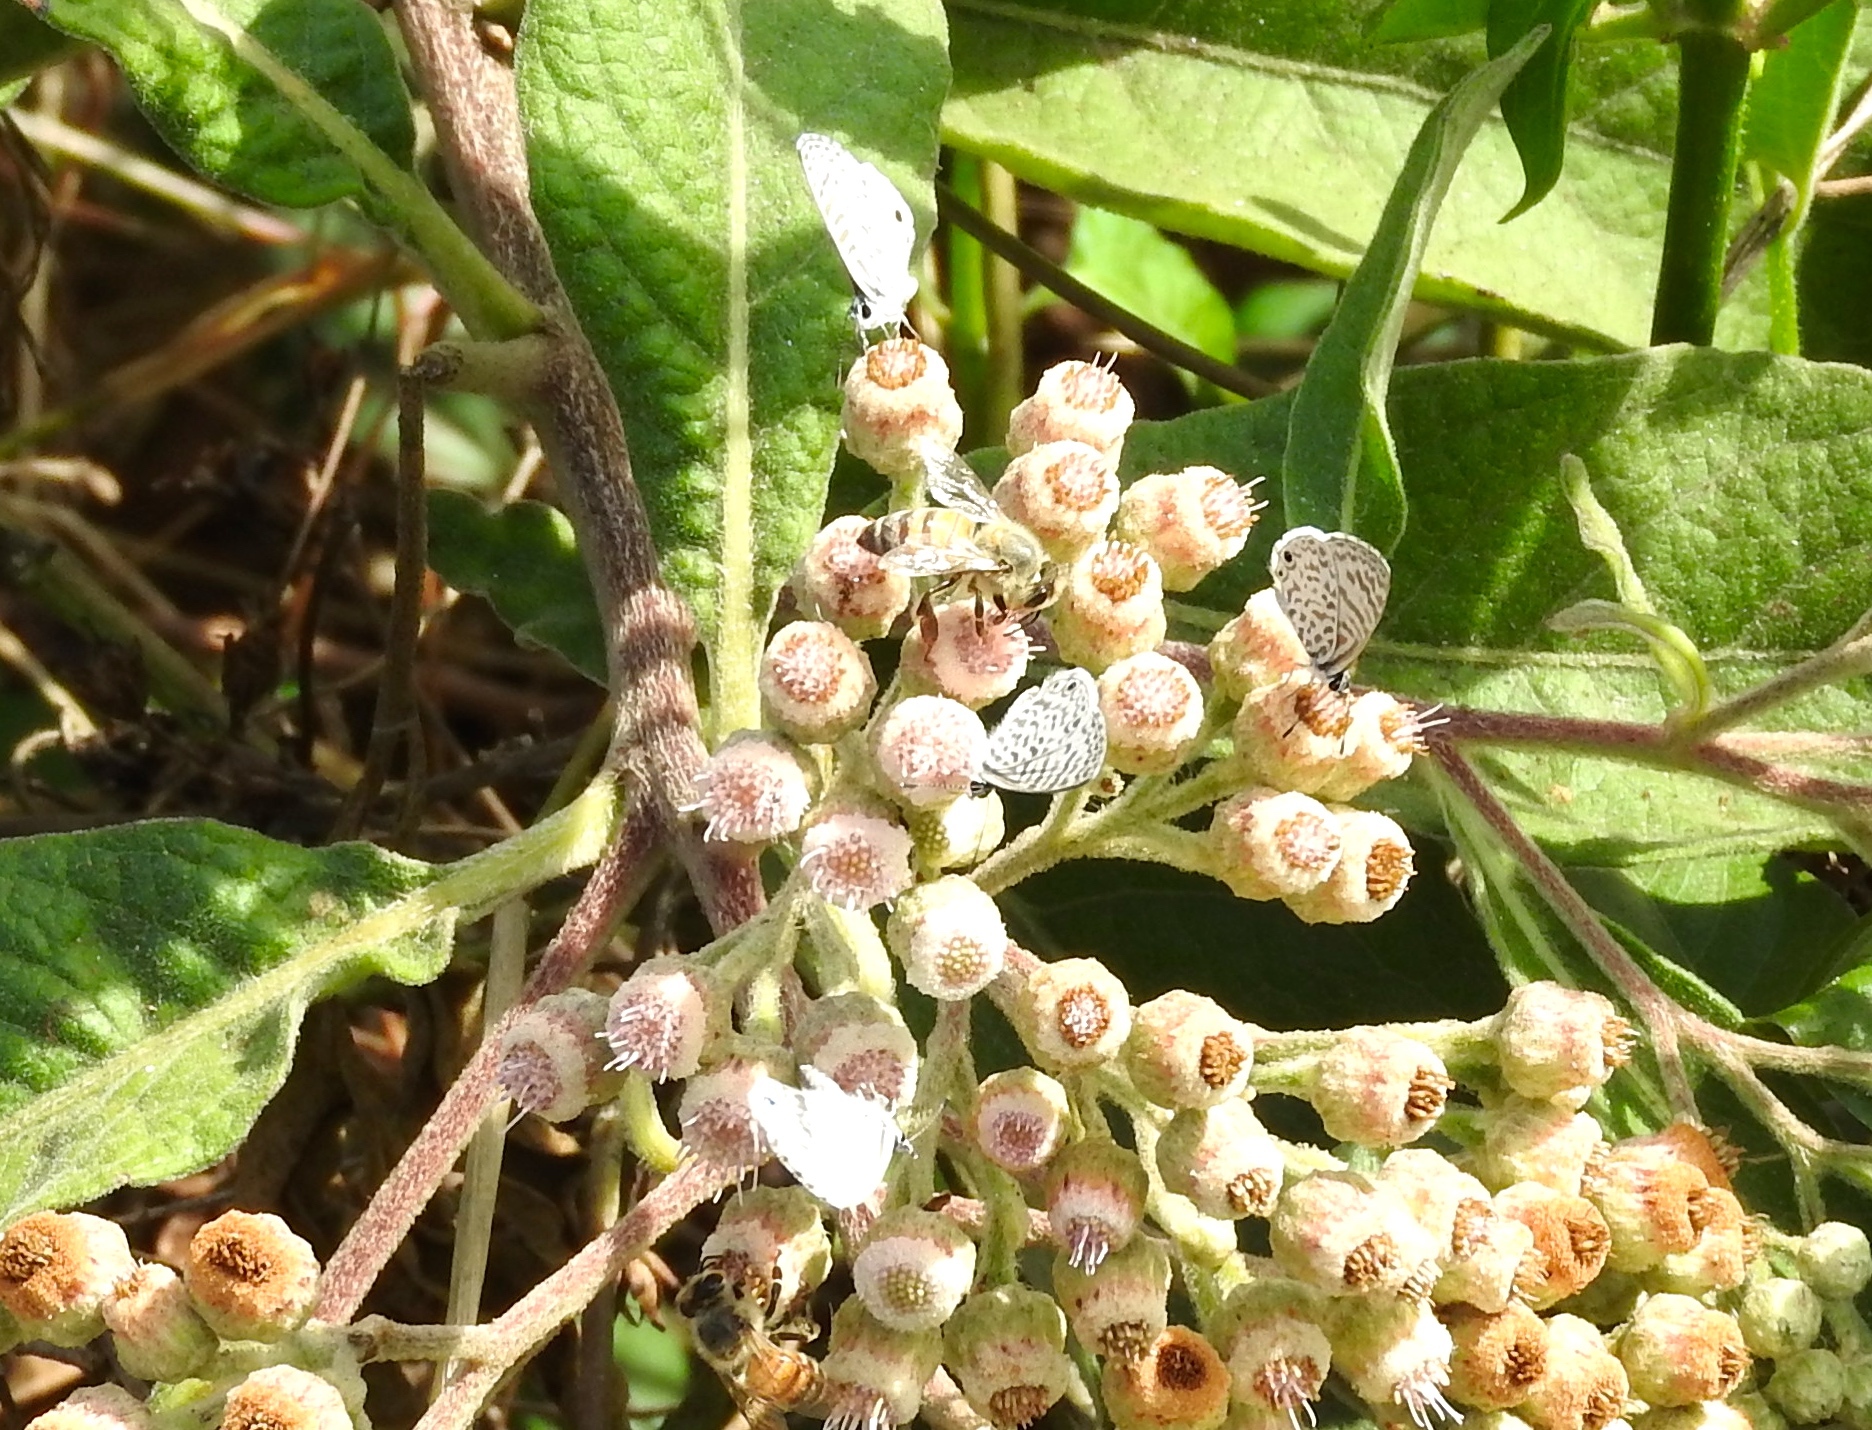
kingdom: Animalia
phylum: Arthropoda
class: Insecta
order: Hymenoptera
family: Apidae
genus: Apis
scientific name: Apis mellifera
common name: Honey bee
